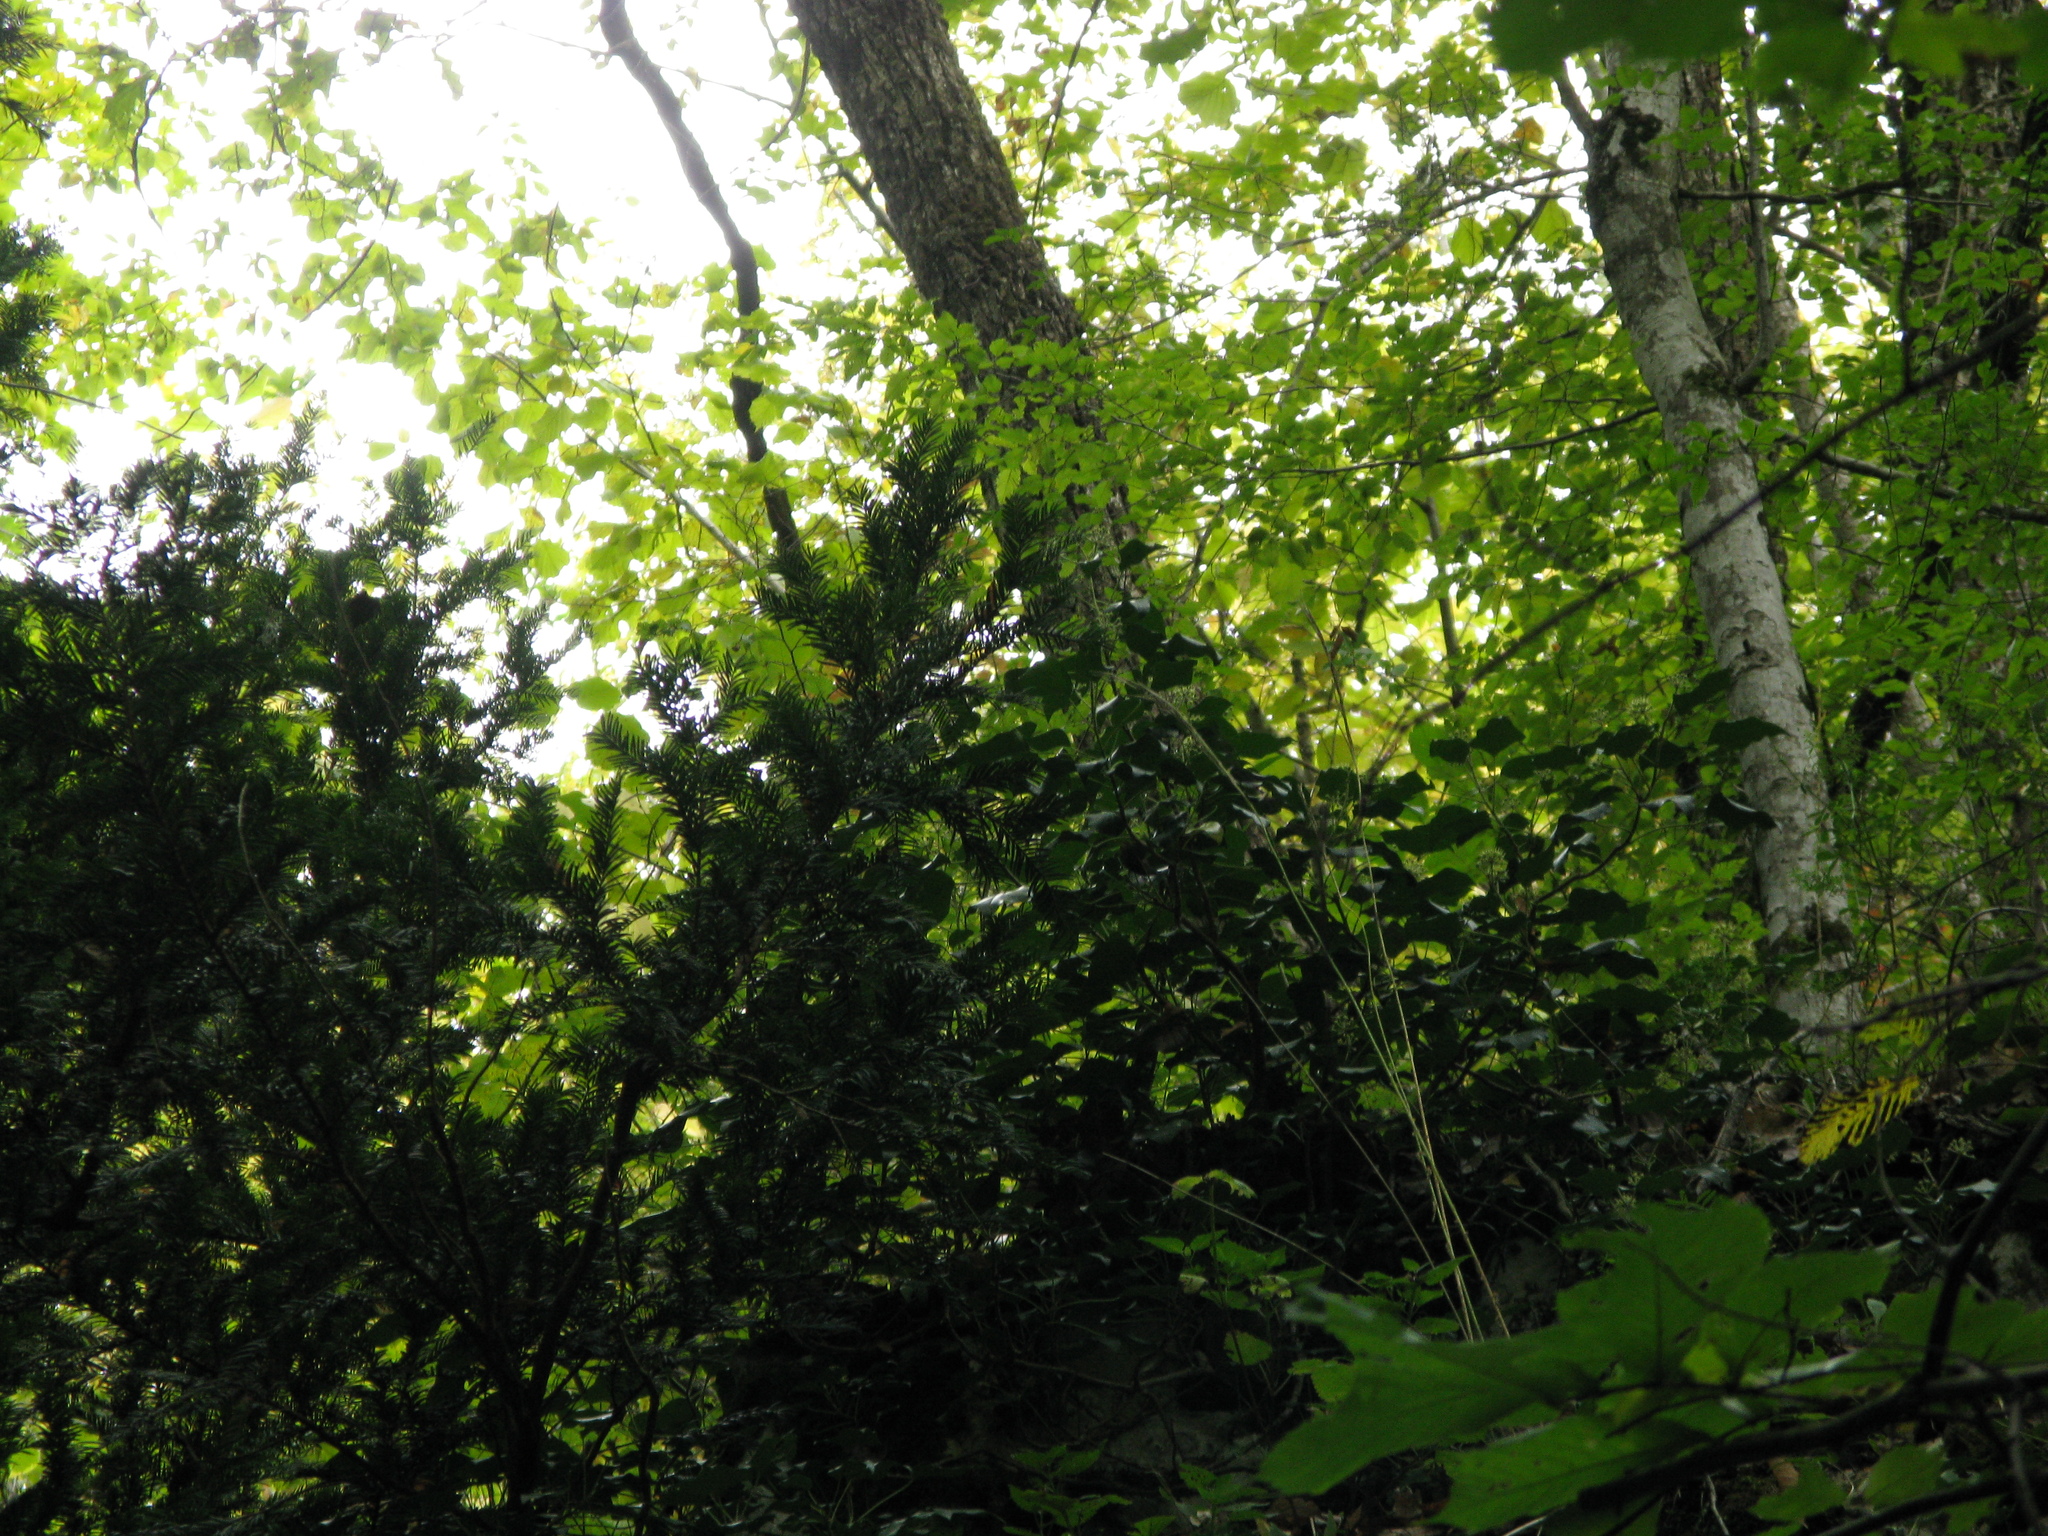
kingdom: Plantae
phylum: Tracheophyta
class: Pinopsida
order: Pinales
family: Taxaceae
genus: Taxus
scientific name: Taxus baccata
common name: Yew
